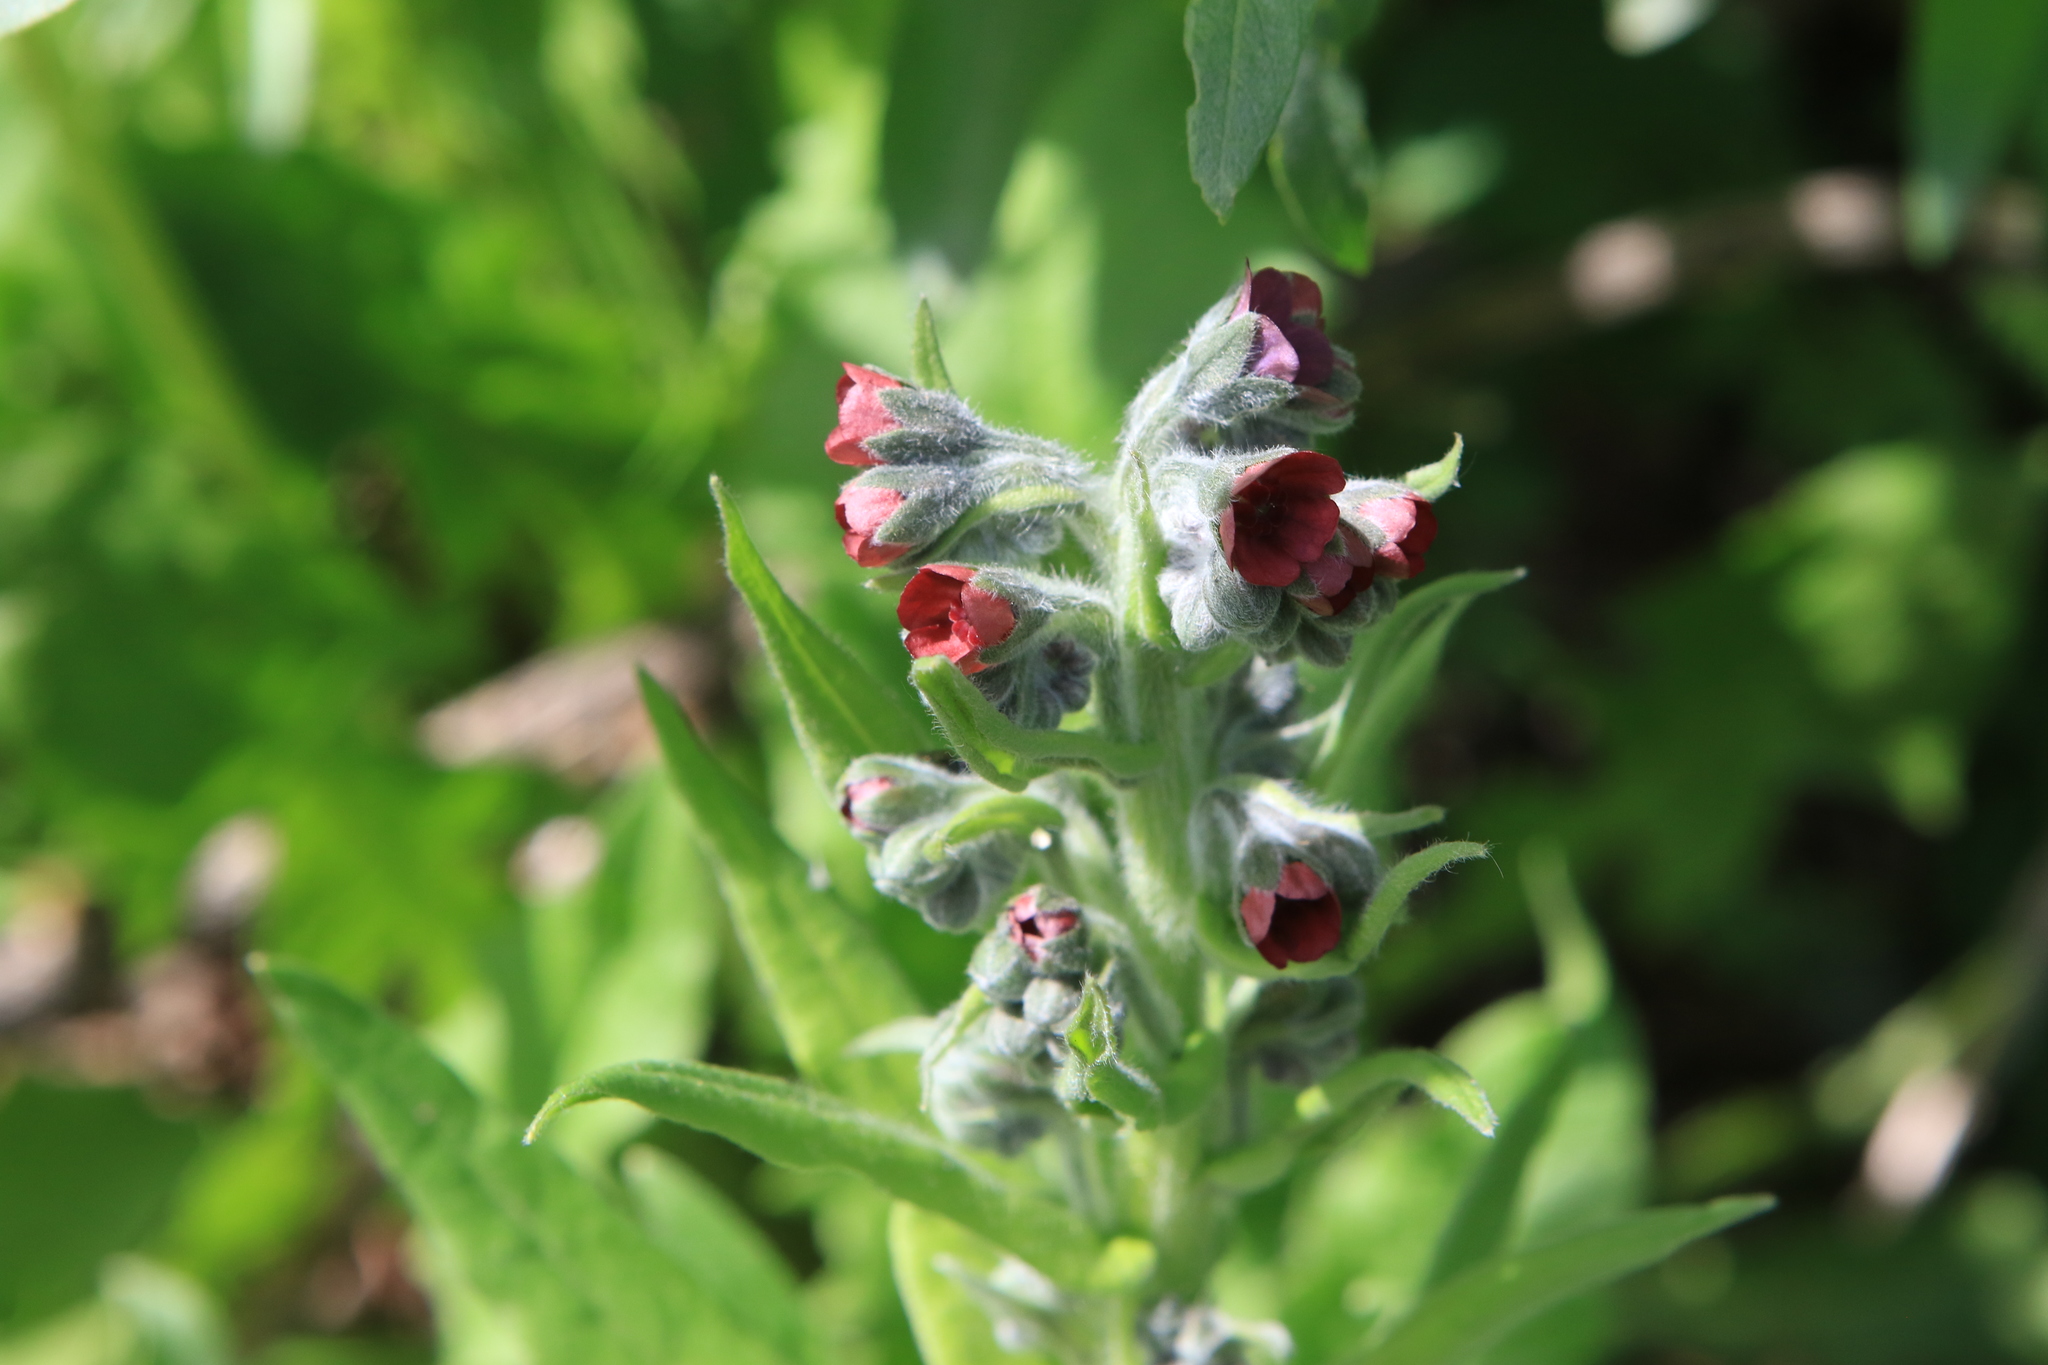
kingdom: Plantae
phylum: Tracheophyta
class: Magnoliopsida
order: Boraginales
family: Boraginaceae
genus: Cynoglossum
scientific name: Cynoglossum officinale
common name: Hound's-tongue
